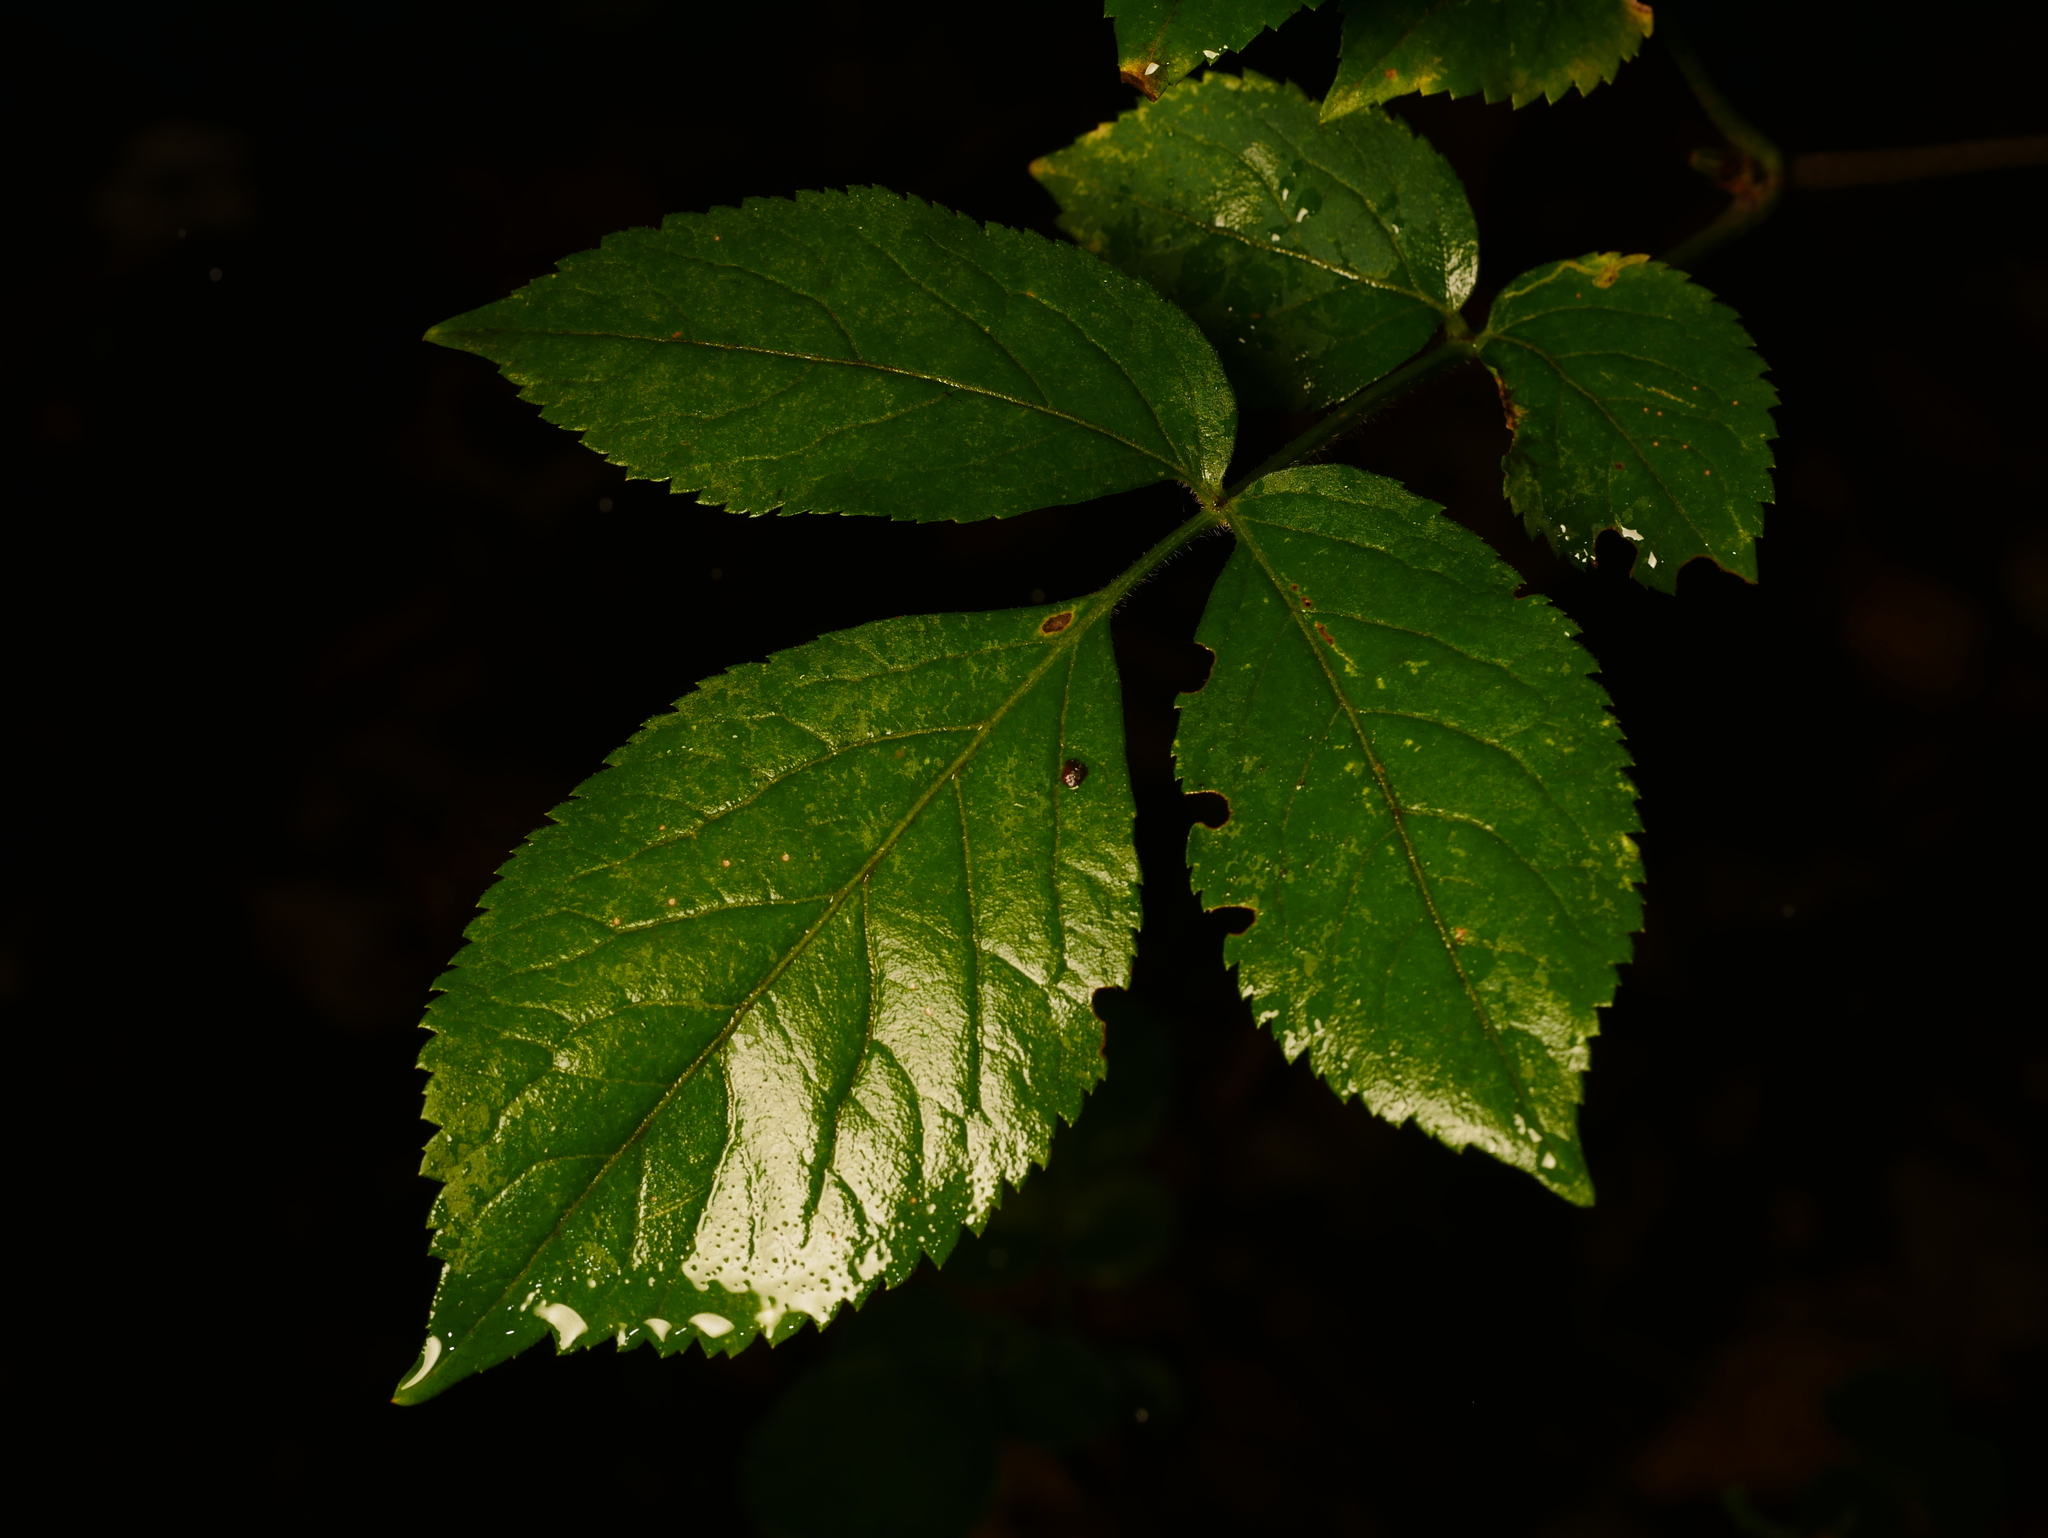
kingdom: Plantae
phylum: Tracheophyta
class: Magnoliopsida
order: Dipsacales
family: Viburnaceae
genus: Sambucus
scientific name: Sambucus nigra
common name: Elder
